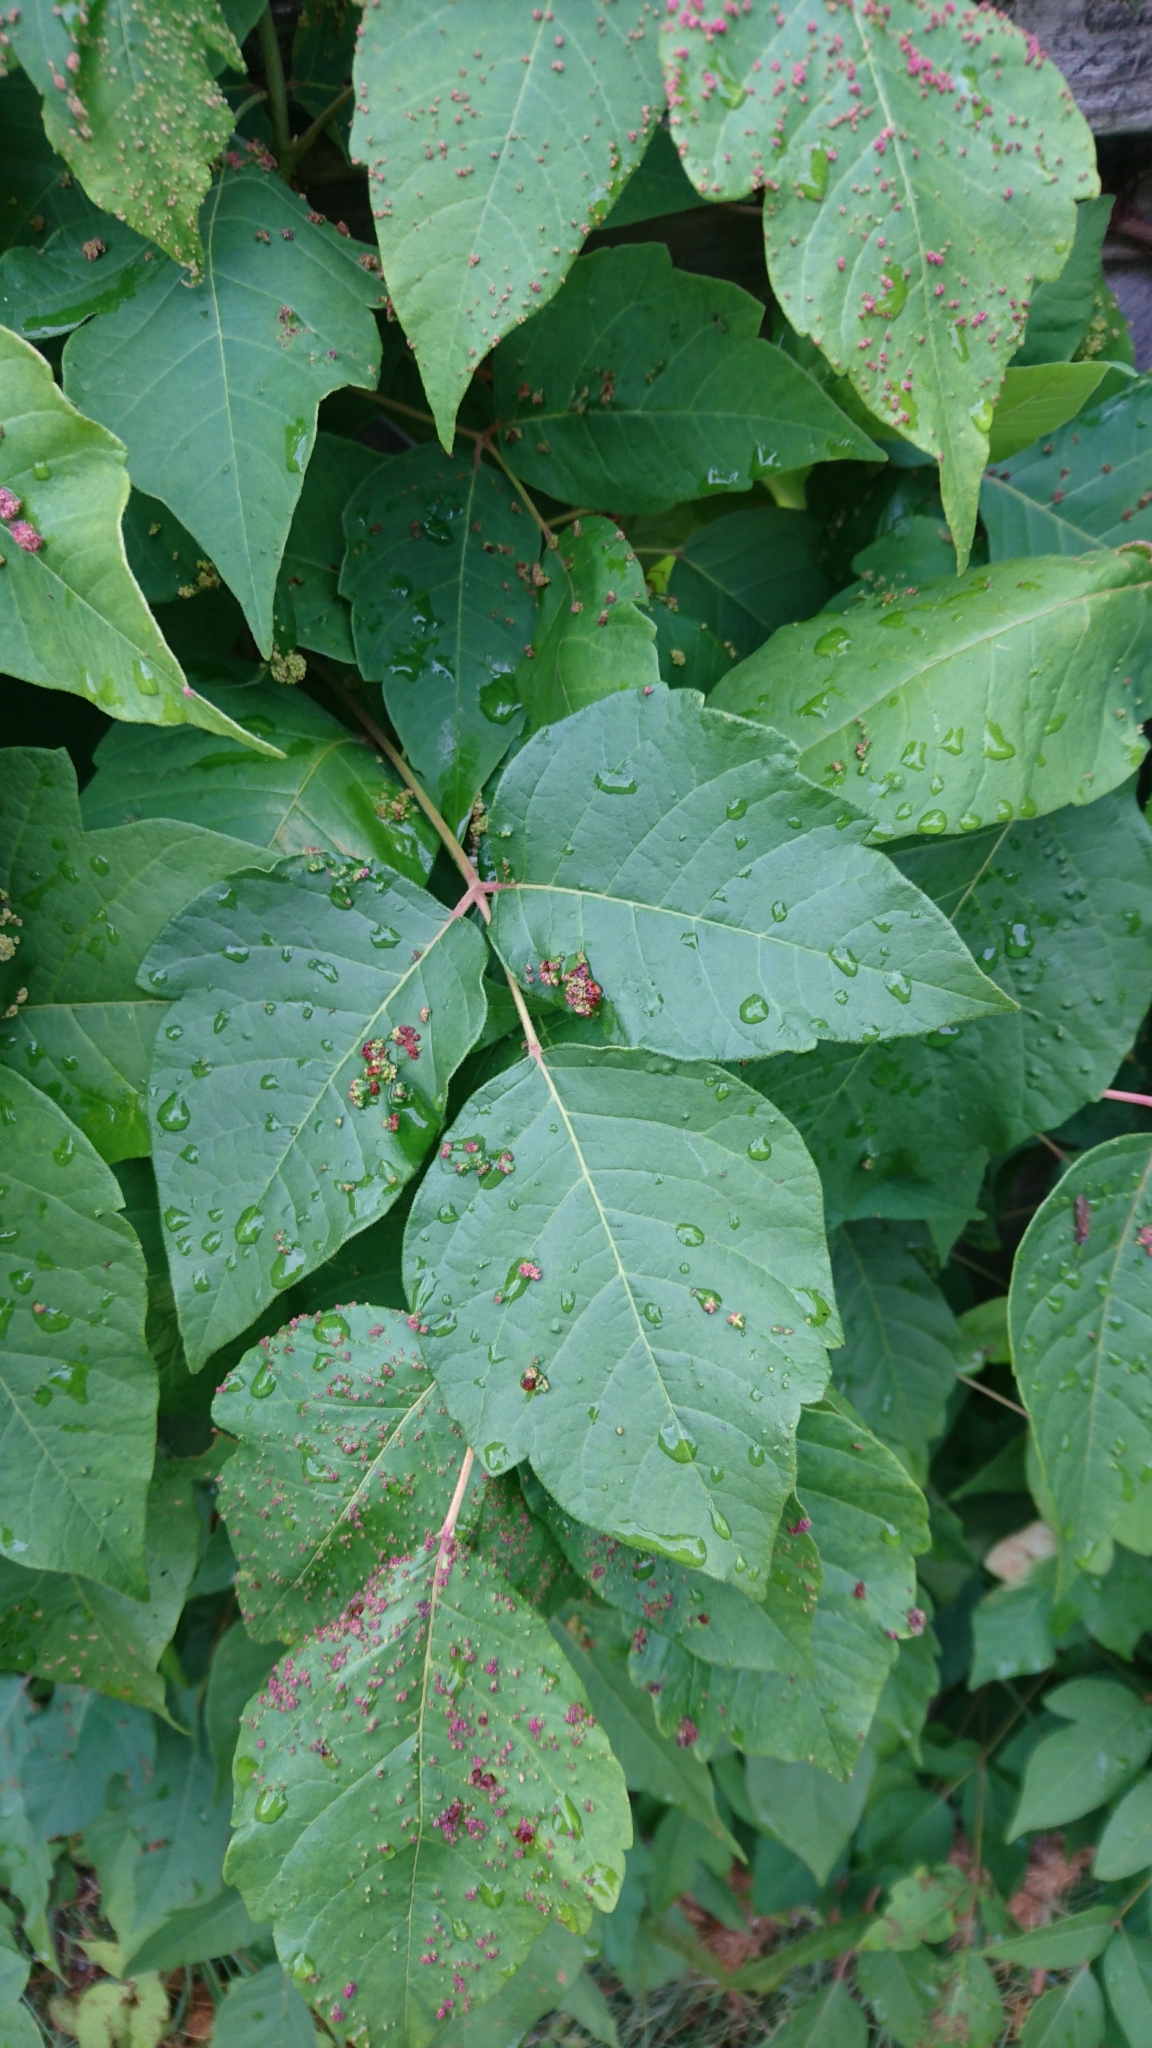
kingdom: Plantae
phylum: Tracheophyta
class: Magnoliopsida
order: Sapindales
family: Anacardiaceae
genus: Toxicodendron
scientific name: Toxicodendron radicans
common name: Poison ivy
